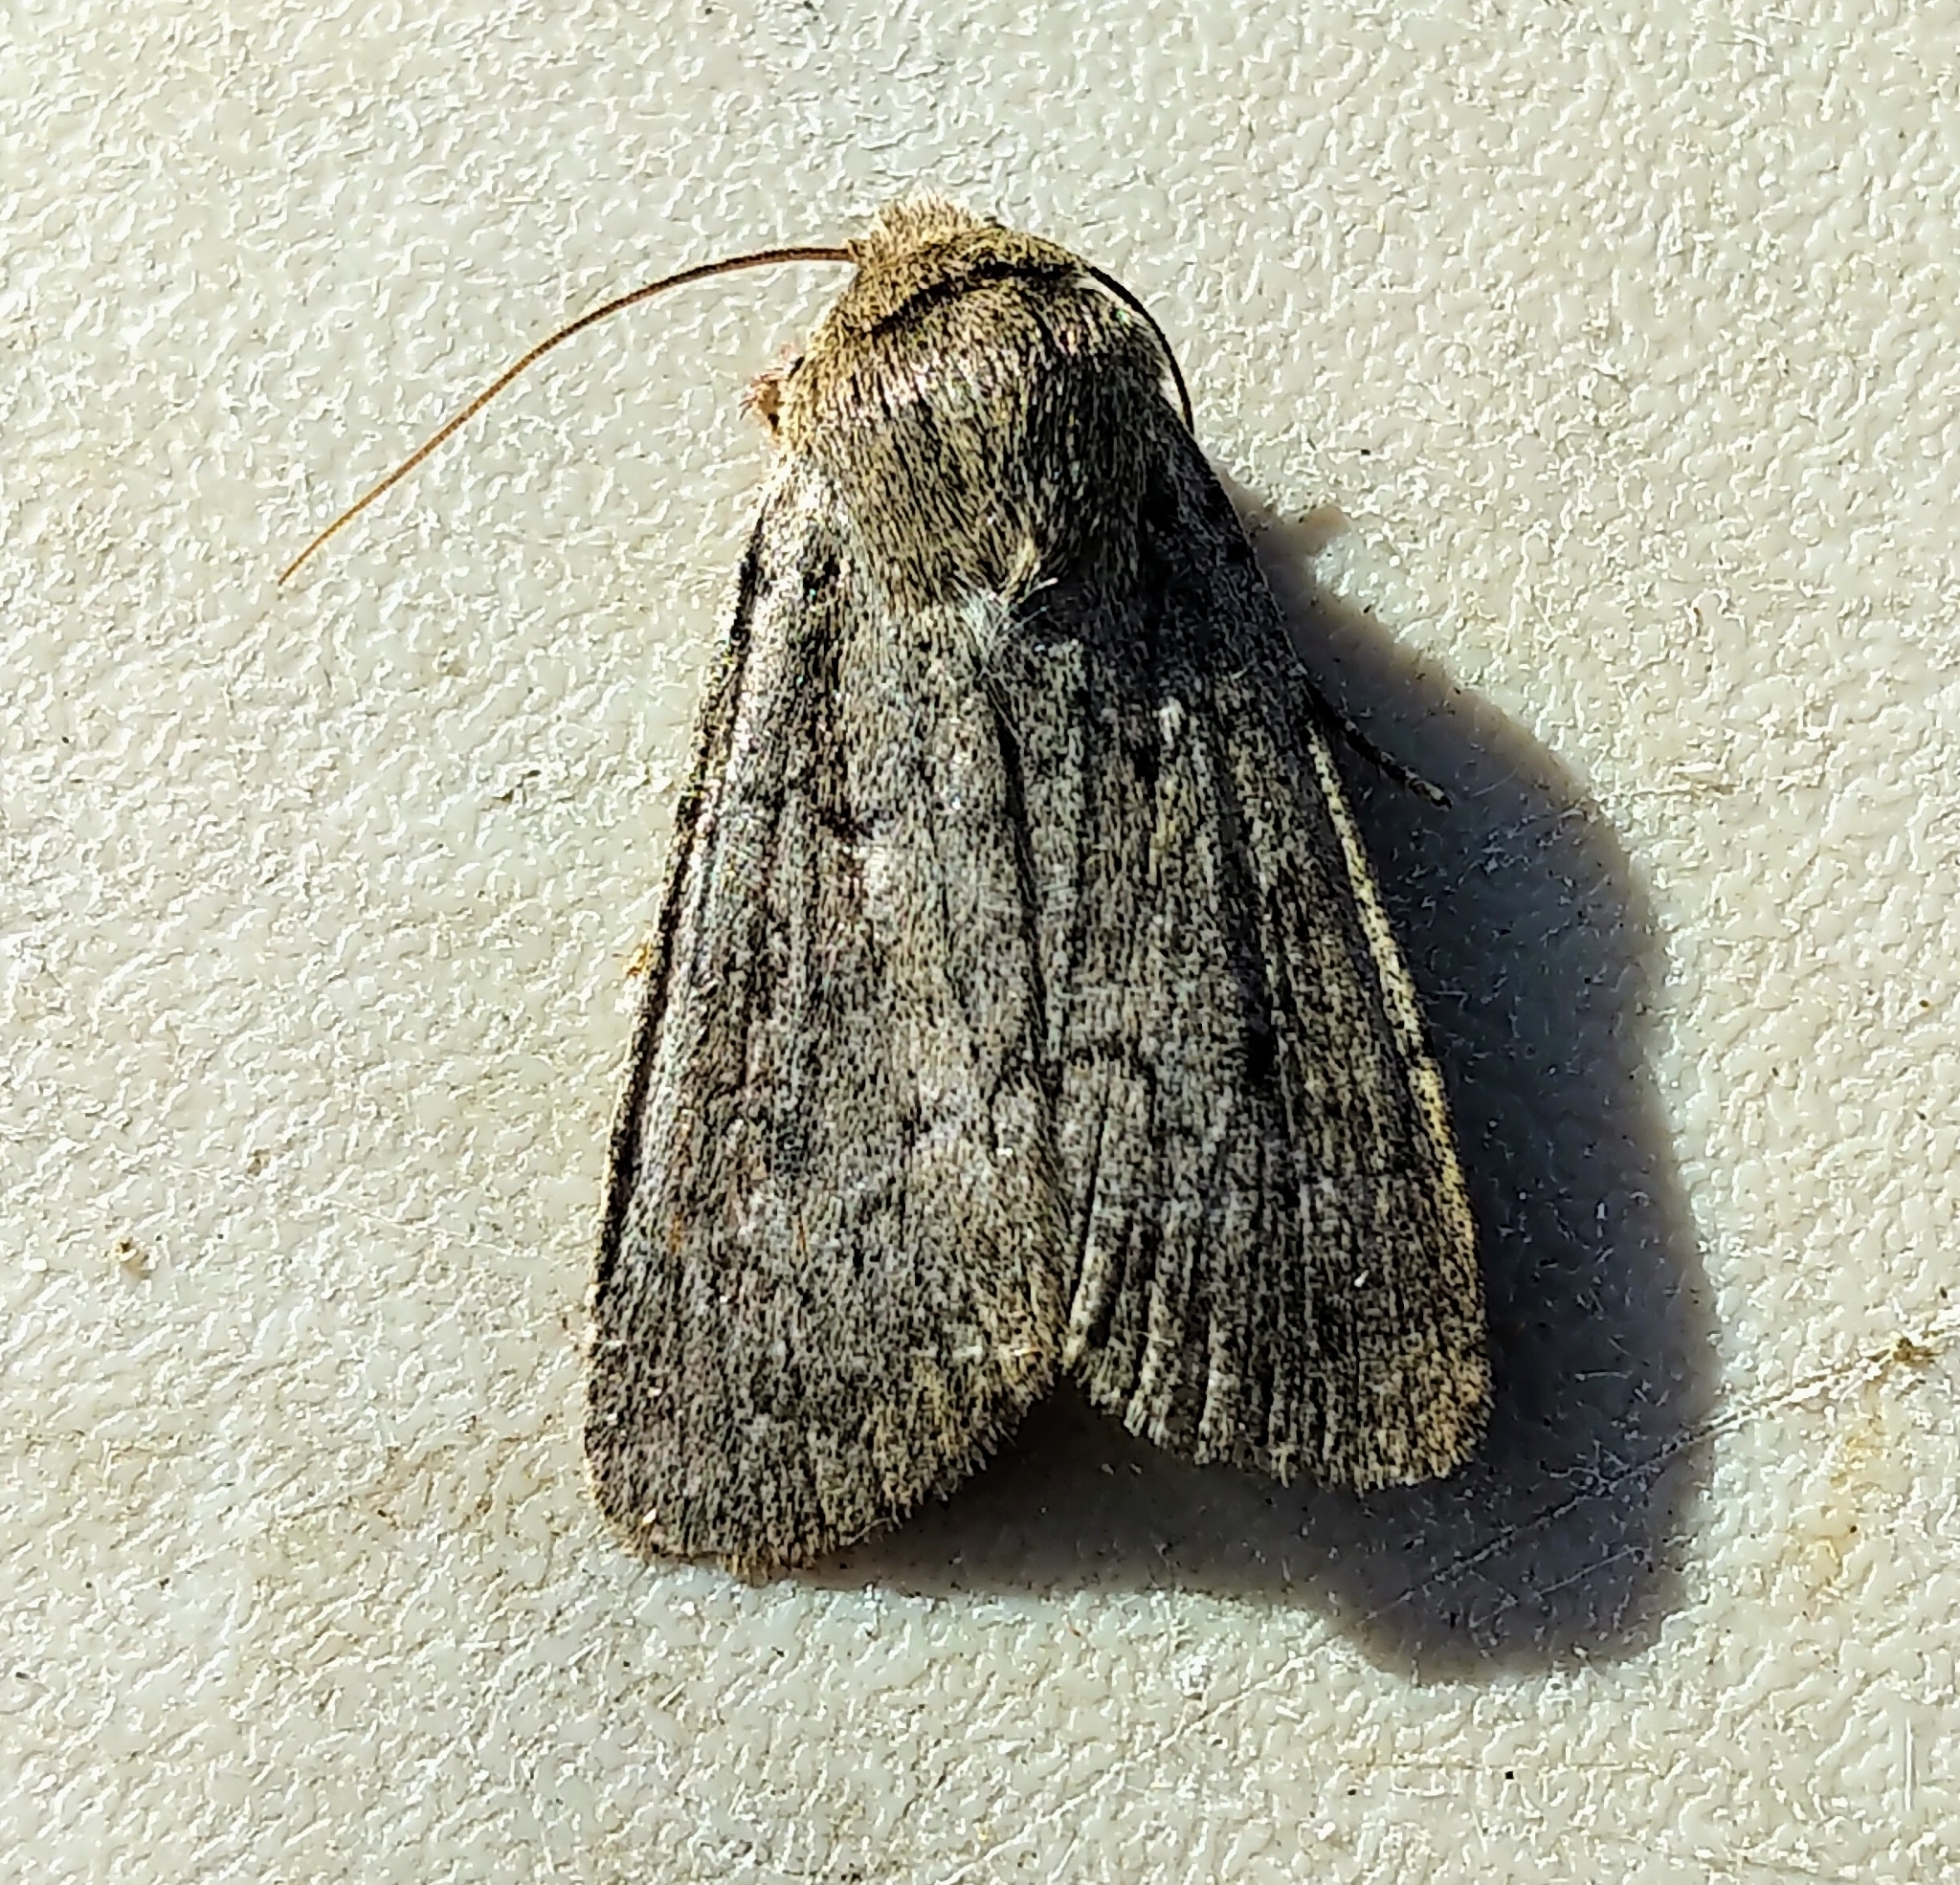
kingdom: Animalia
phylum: Arthropoda
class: Insecta
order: Lepidoptera
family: Noctuidae
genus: Euxoa
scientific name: Euxoa munis
